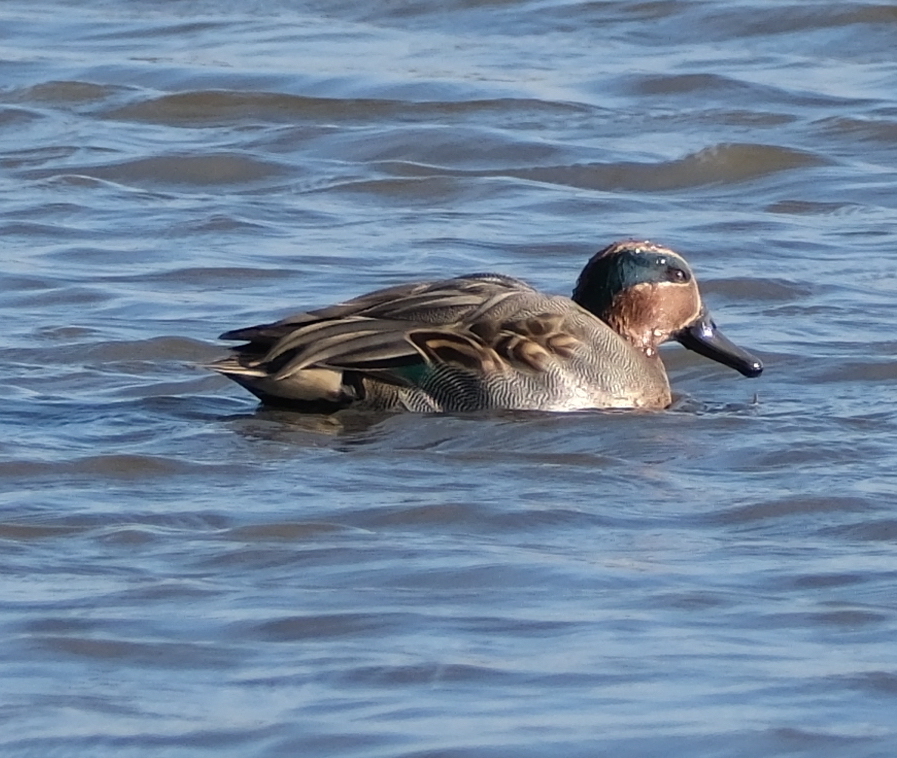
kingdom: Animalia
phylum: Chordata
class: Aves
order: Anseriformes
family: Anatidae
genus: Anas
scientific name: Anas crecca
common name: Eurasian teal
